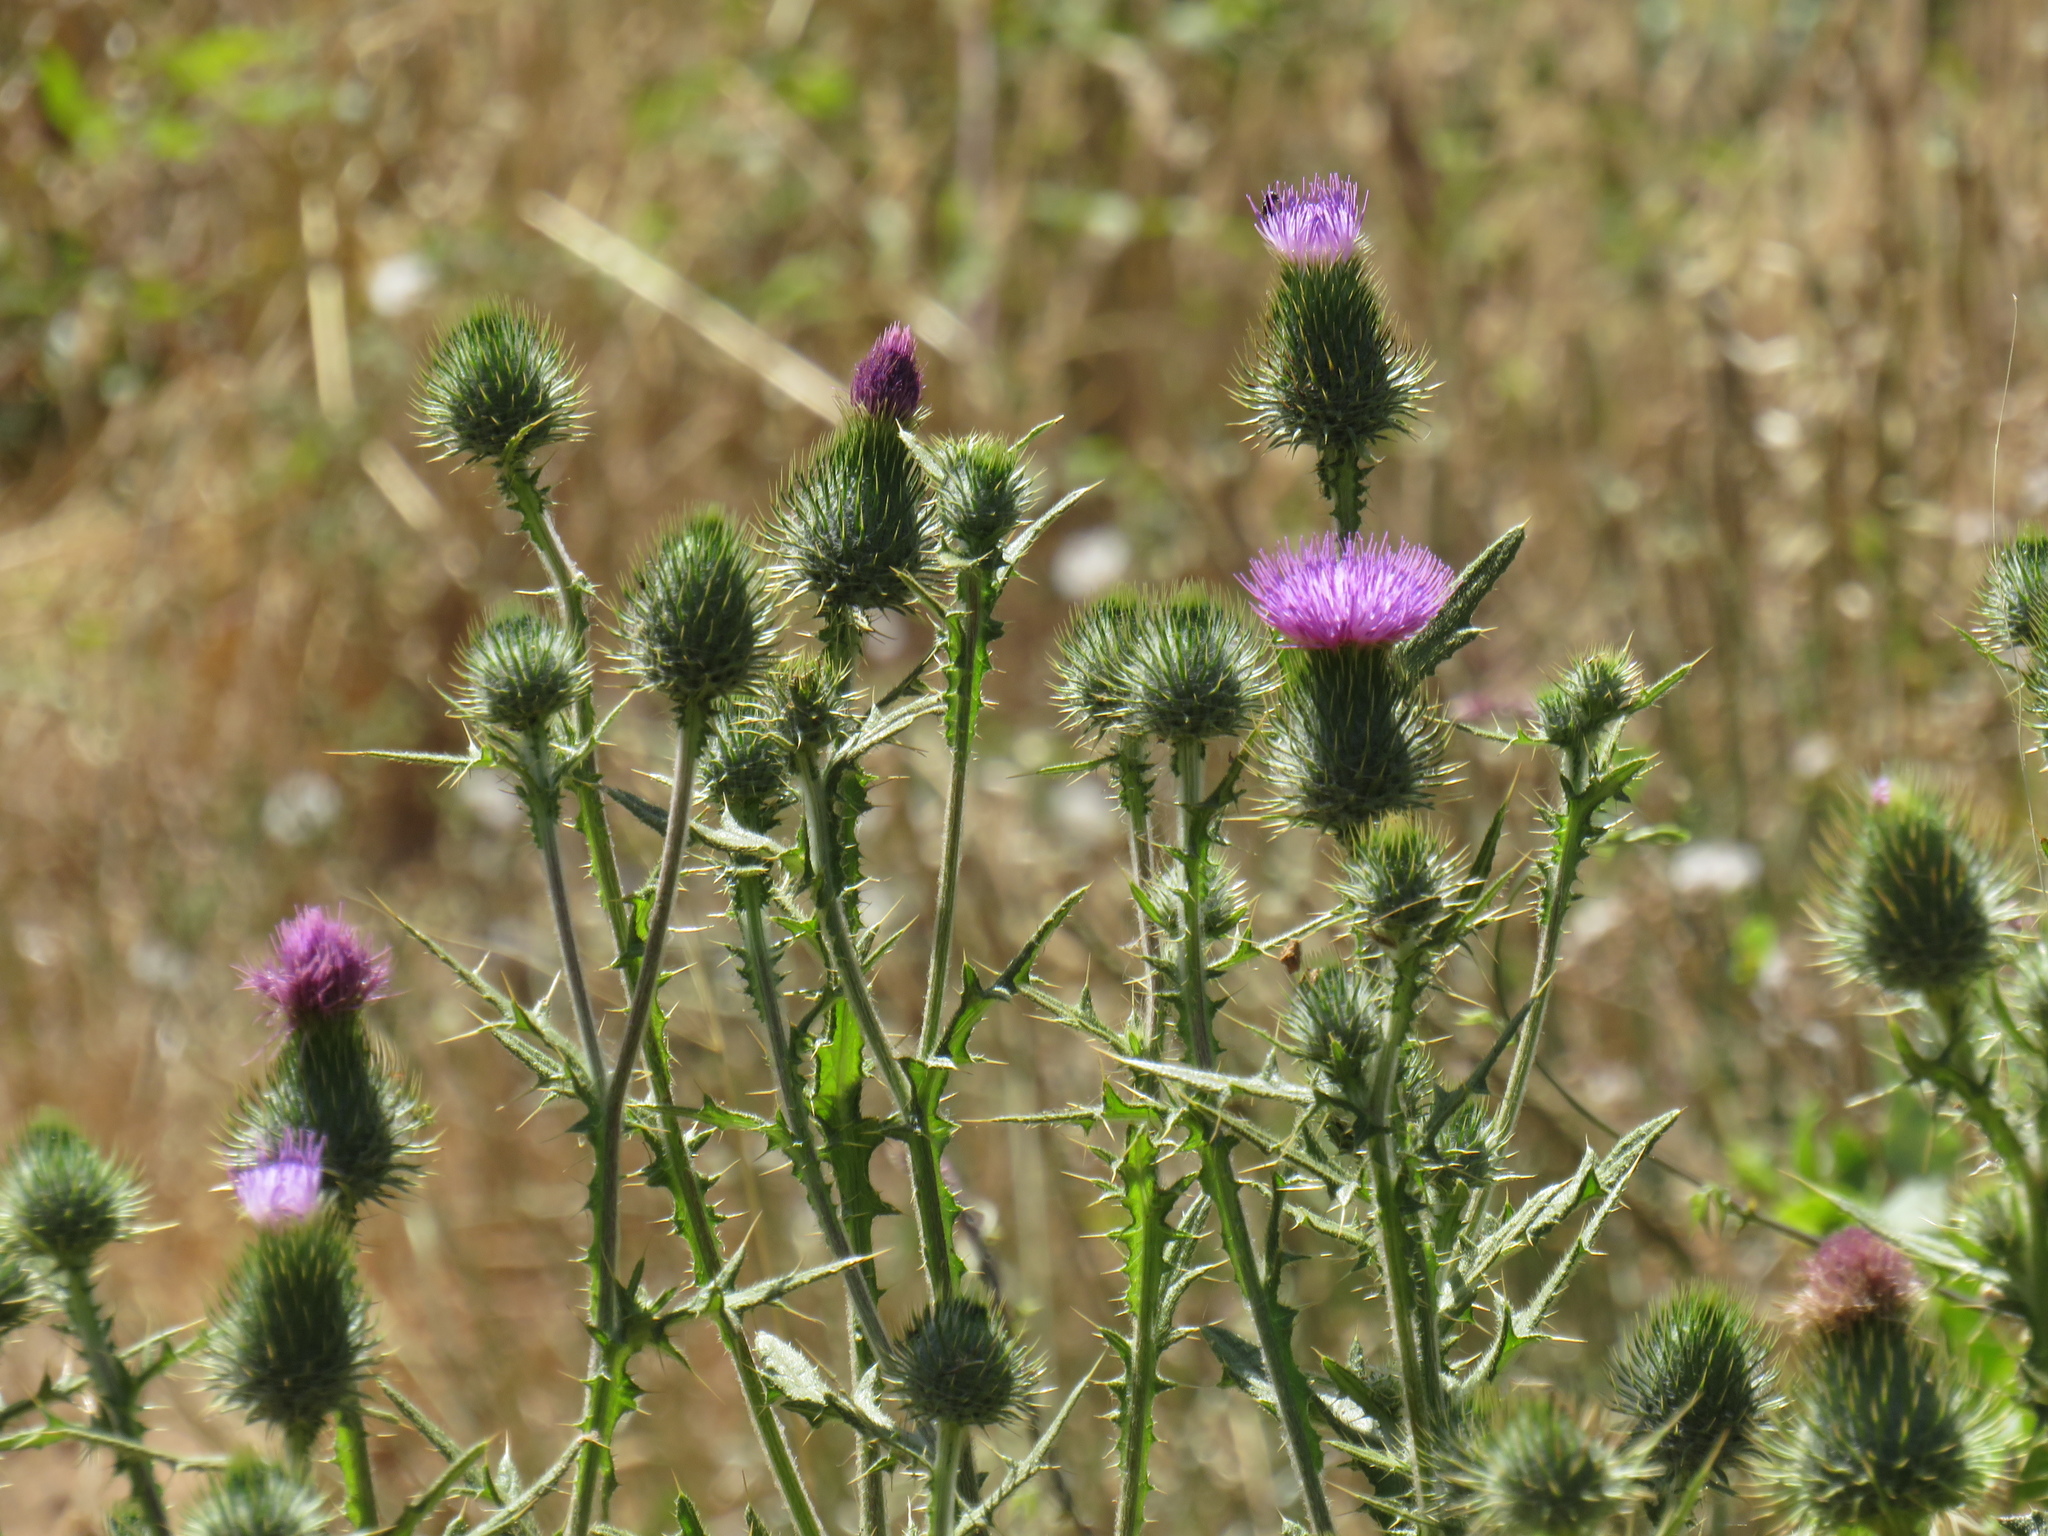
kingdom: Plantae
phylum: Tracheophyta
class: Magnoliopsida
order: Asterales
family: Asteraceae
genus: Cirsium
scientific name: Cirsium vulgare
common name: Bull thistle
